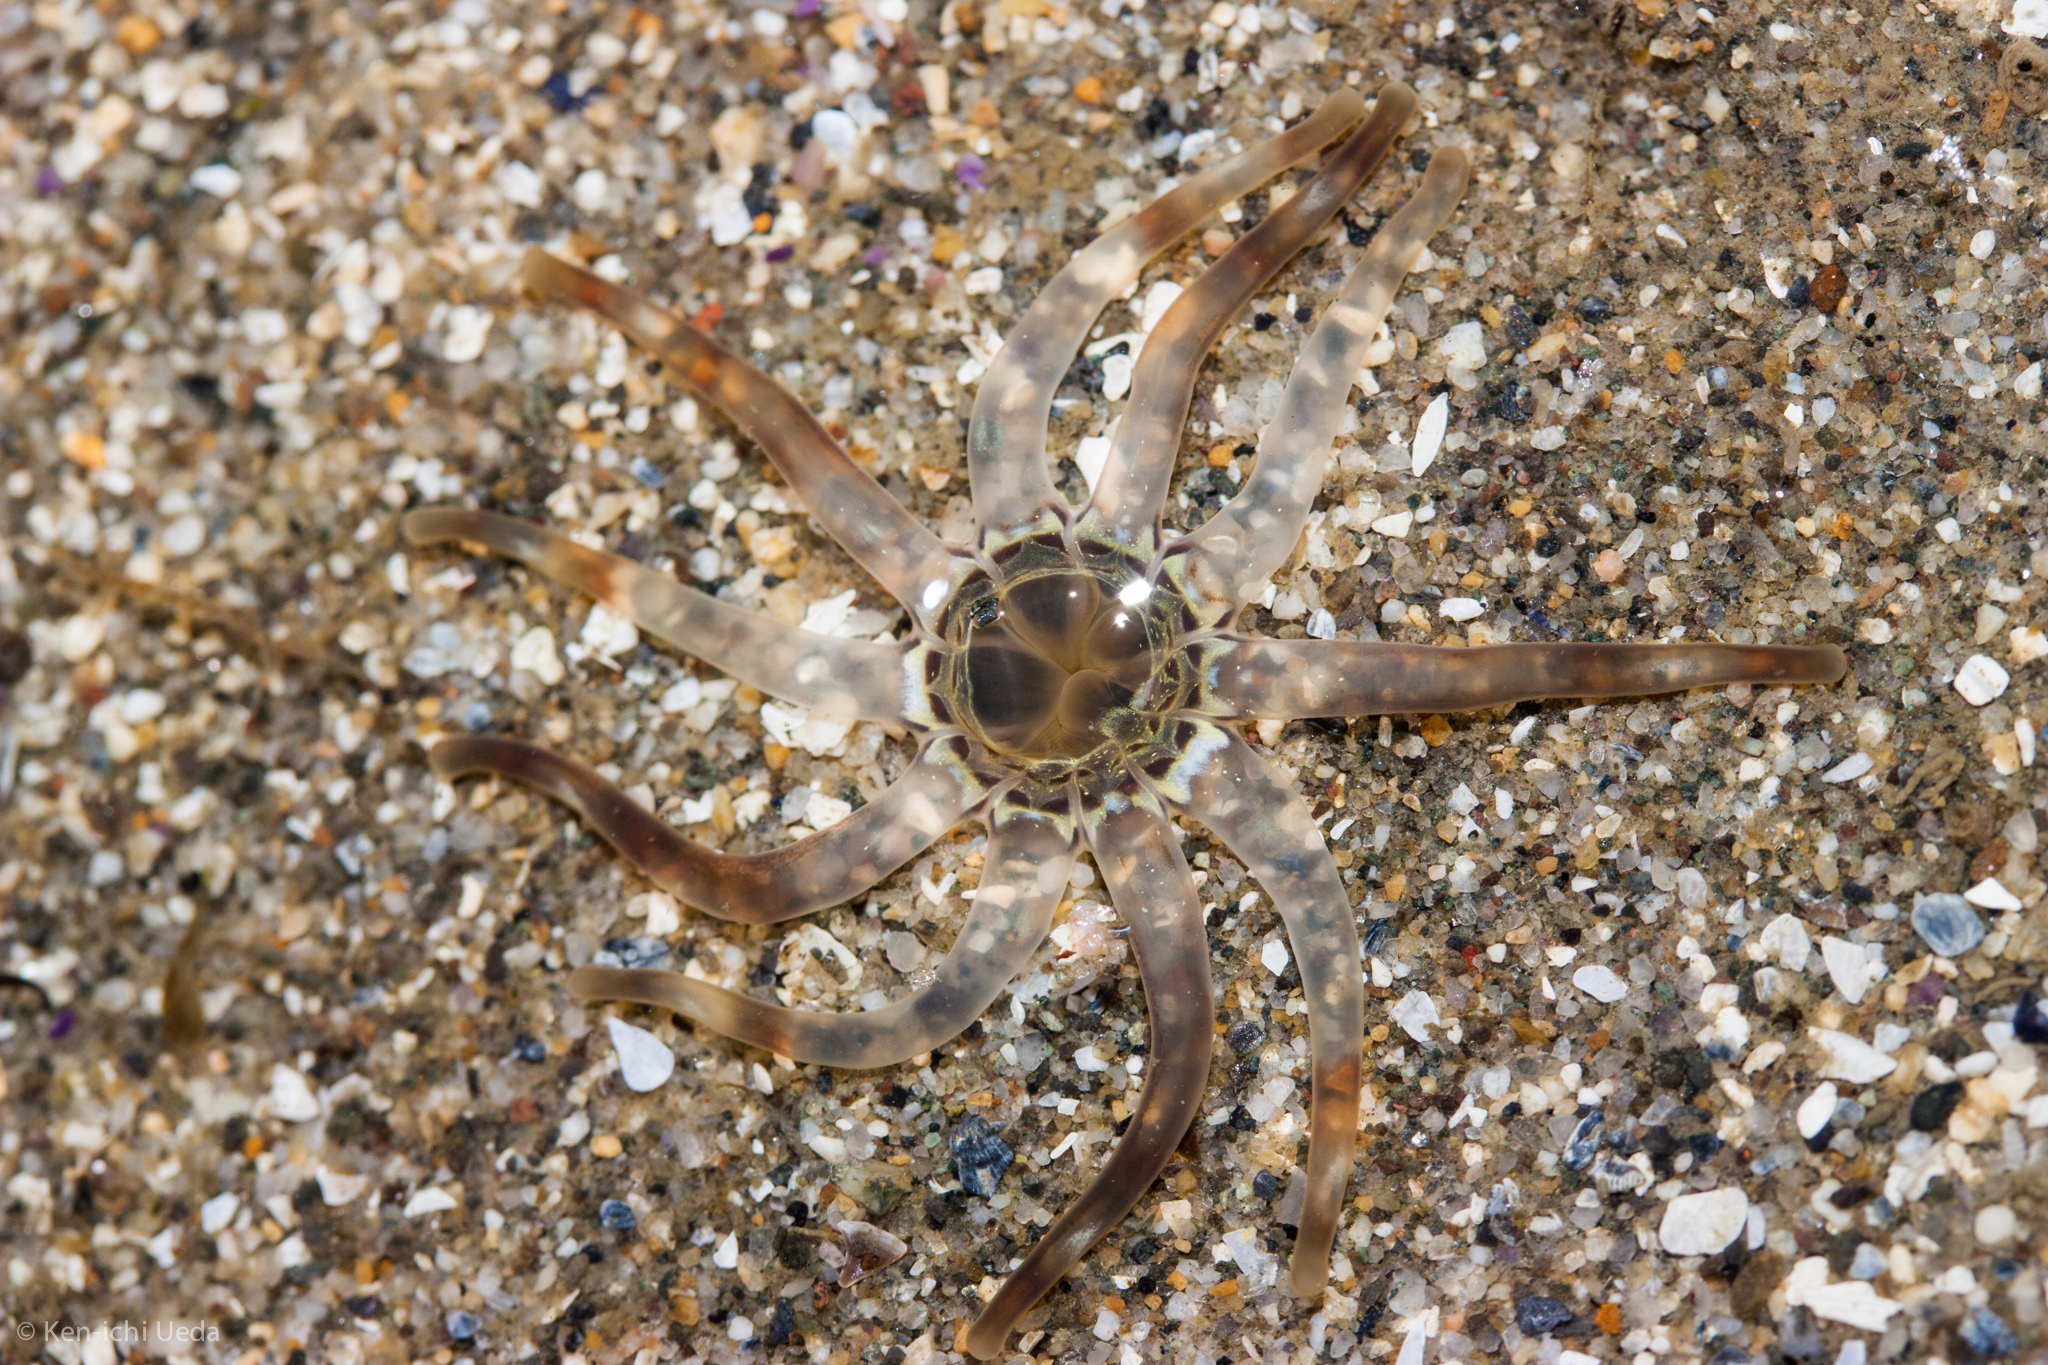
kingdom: Animalia
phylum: Cnidaria
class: Anthozoa
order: Actiniaria
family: Halcampidae
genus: Halcampa
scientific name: Halcampa decemtentaculata
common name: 10-tentacle burrowing anemone
